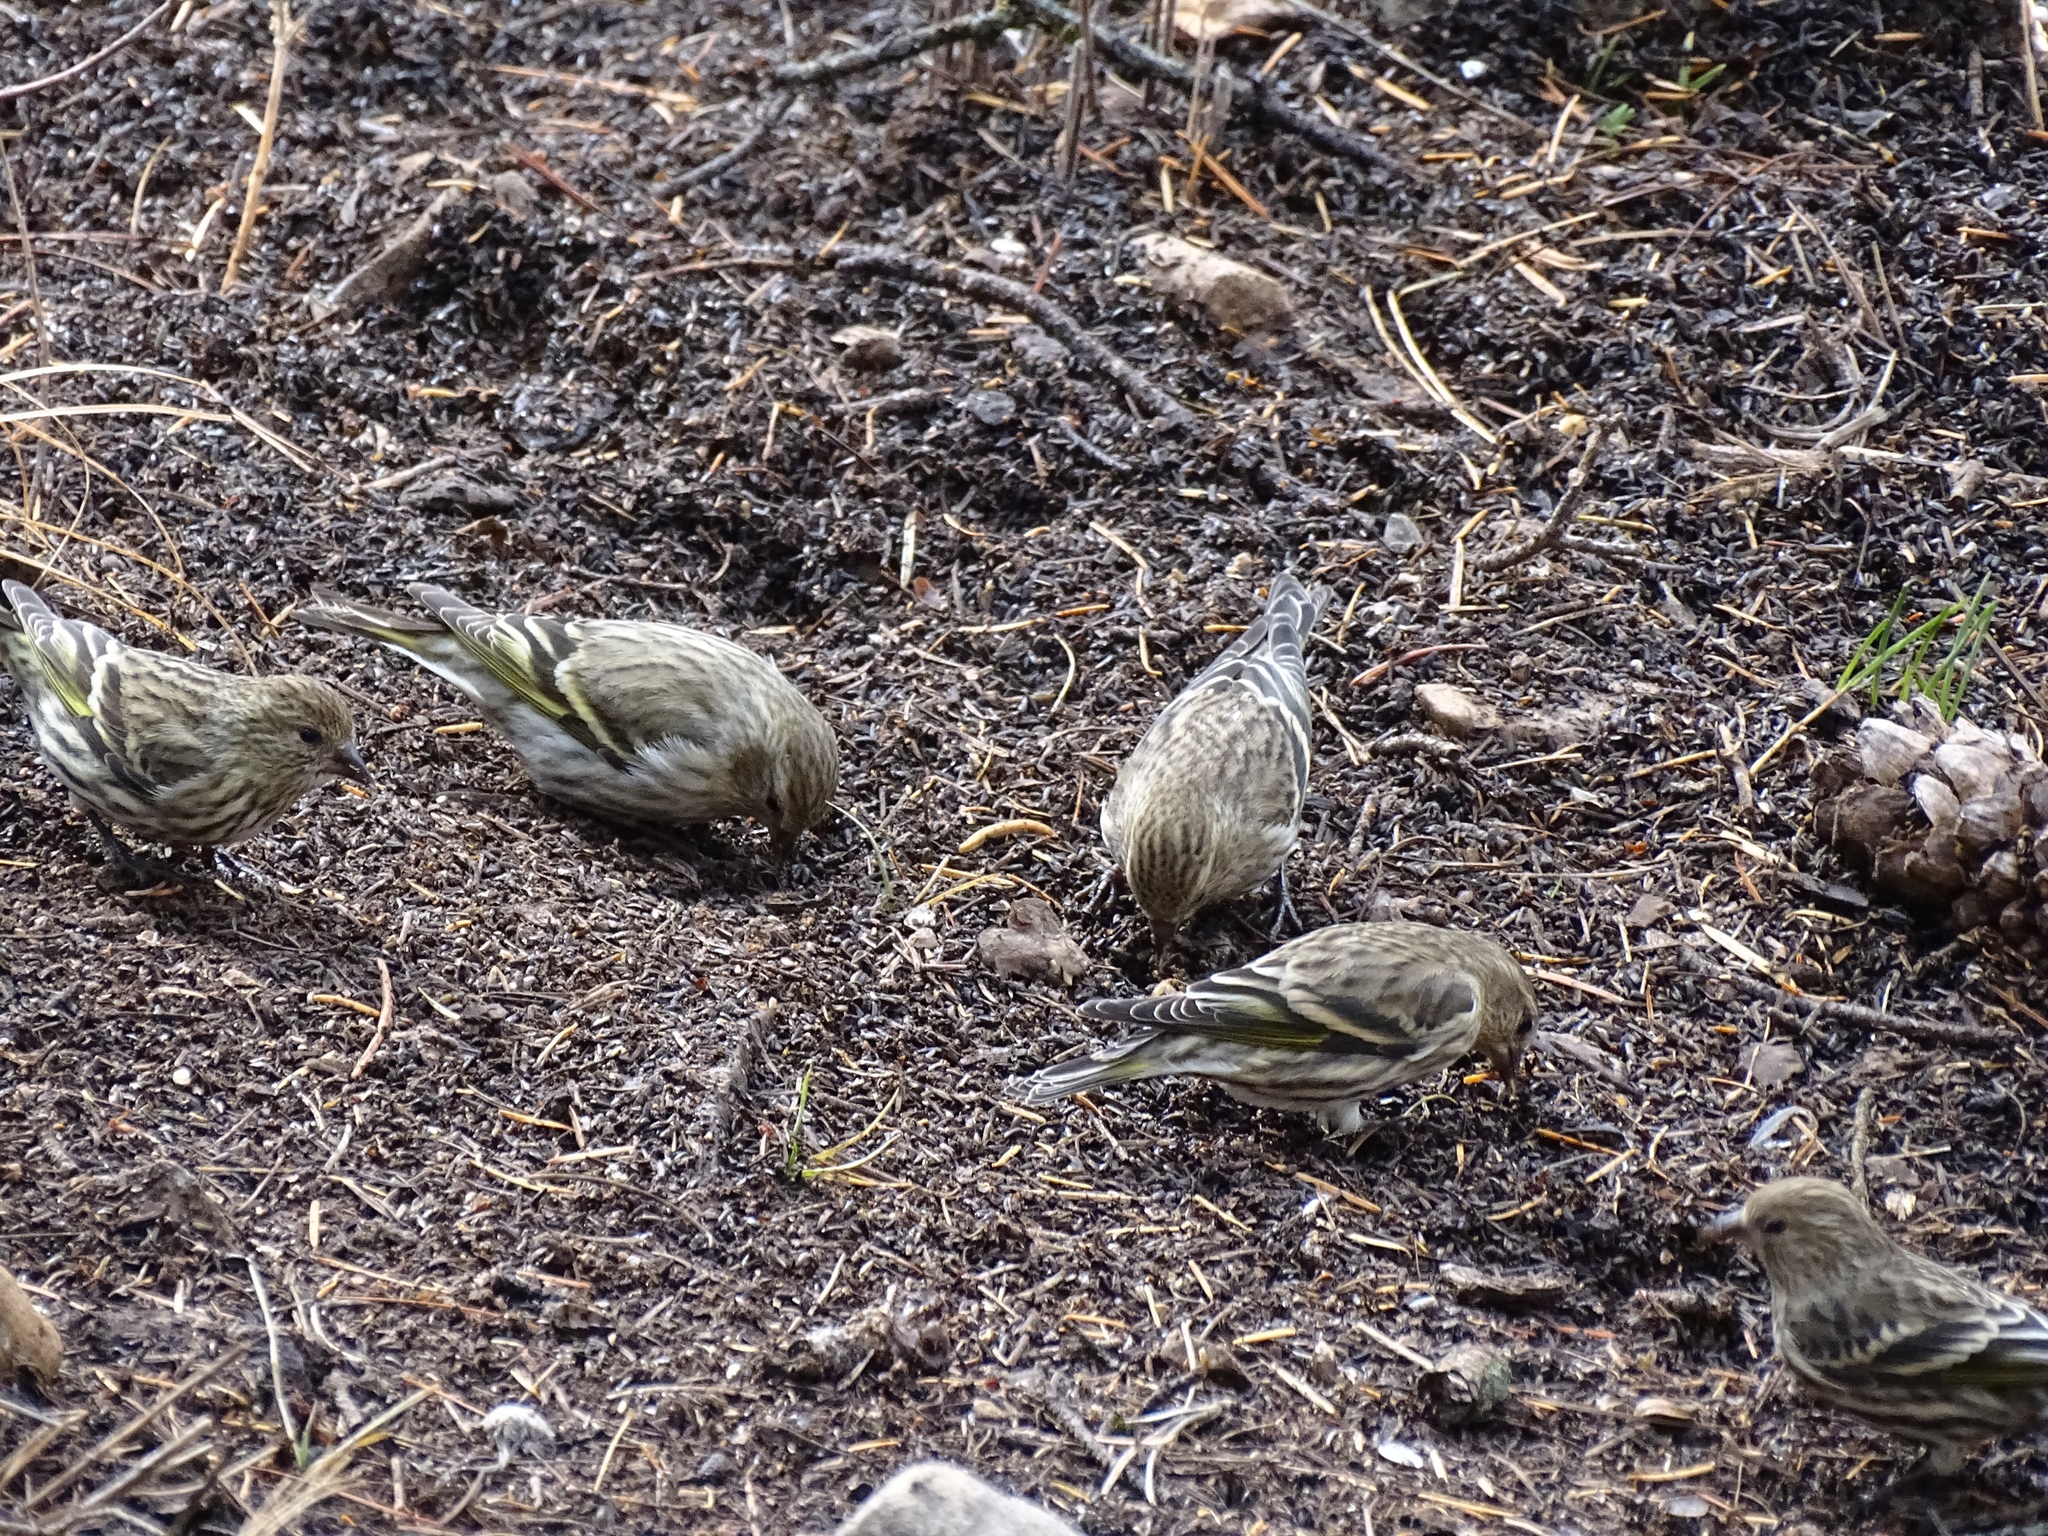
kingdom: Animalia
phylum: Chordata
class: Aves
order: Passeriformes
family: Fringillidae
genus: Spinus
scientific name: Spinus pinus
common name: Pine siskin
